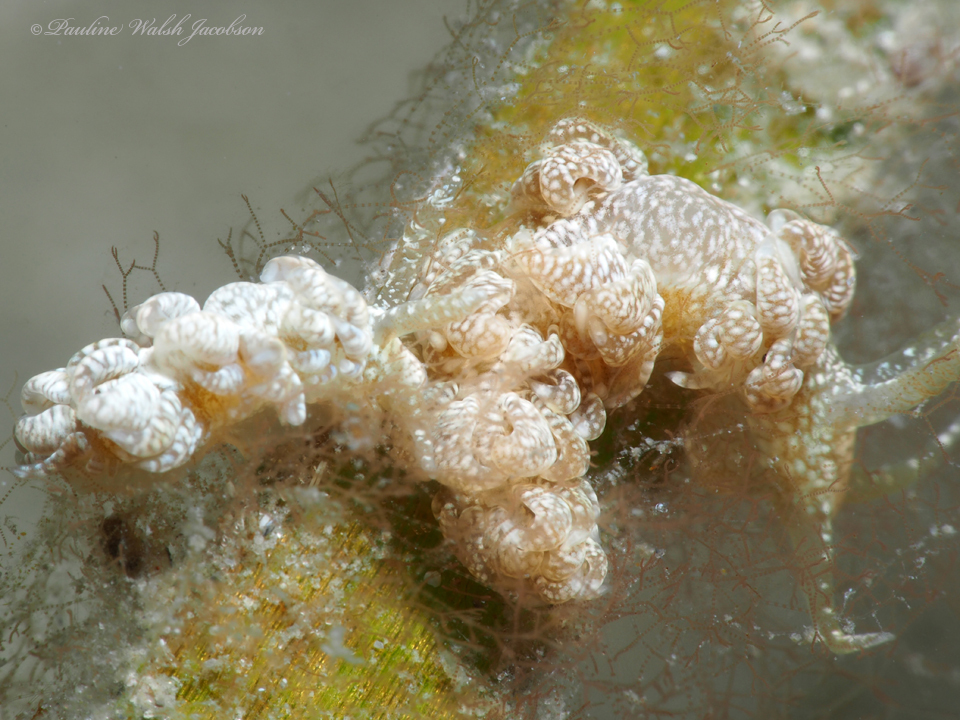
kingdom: Animalia
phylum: Mollusca
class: Gastropoda
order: Nudibranchia
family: Aeolidiidae
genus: Spurilla
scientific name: Spurilla sargassicola
